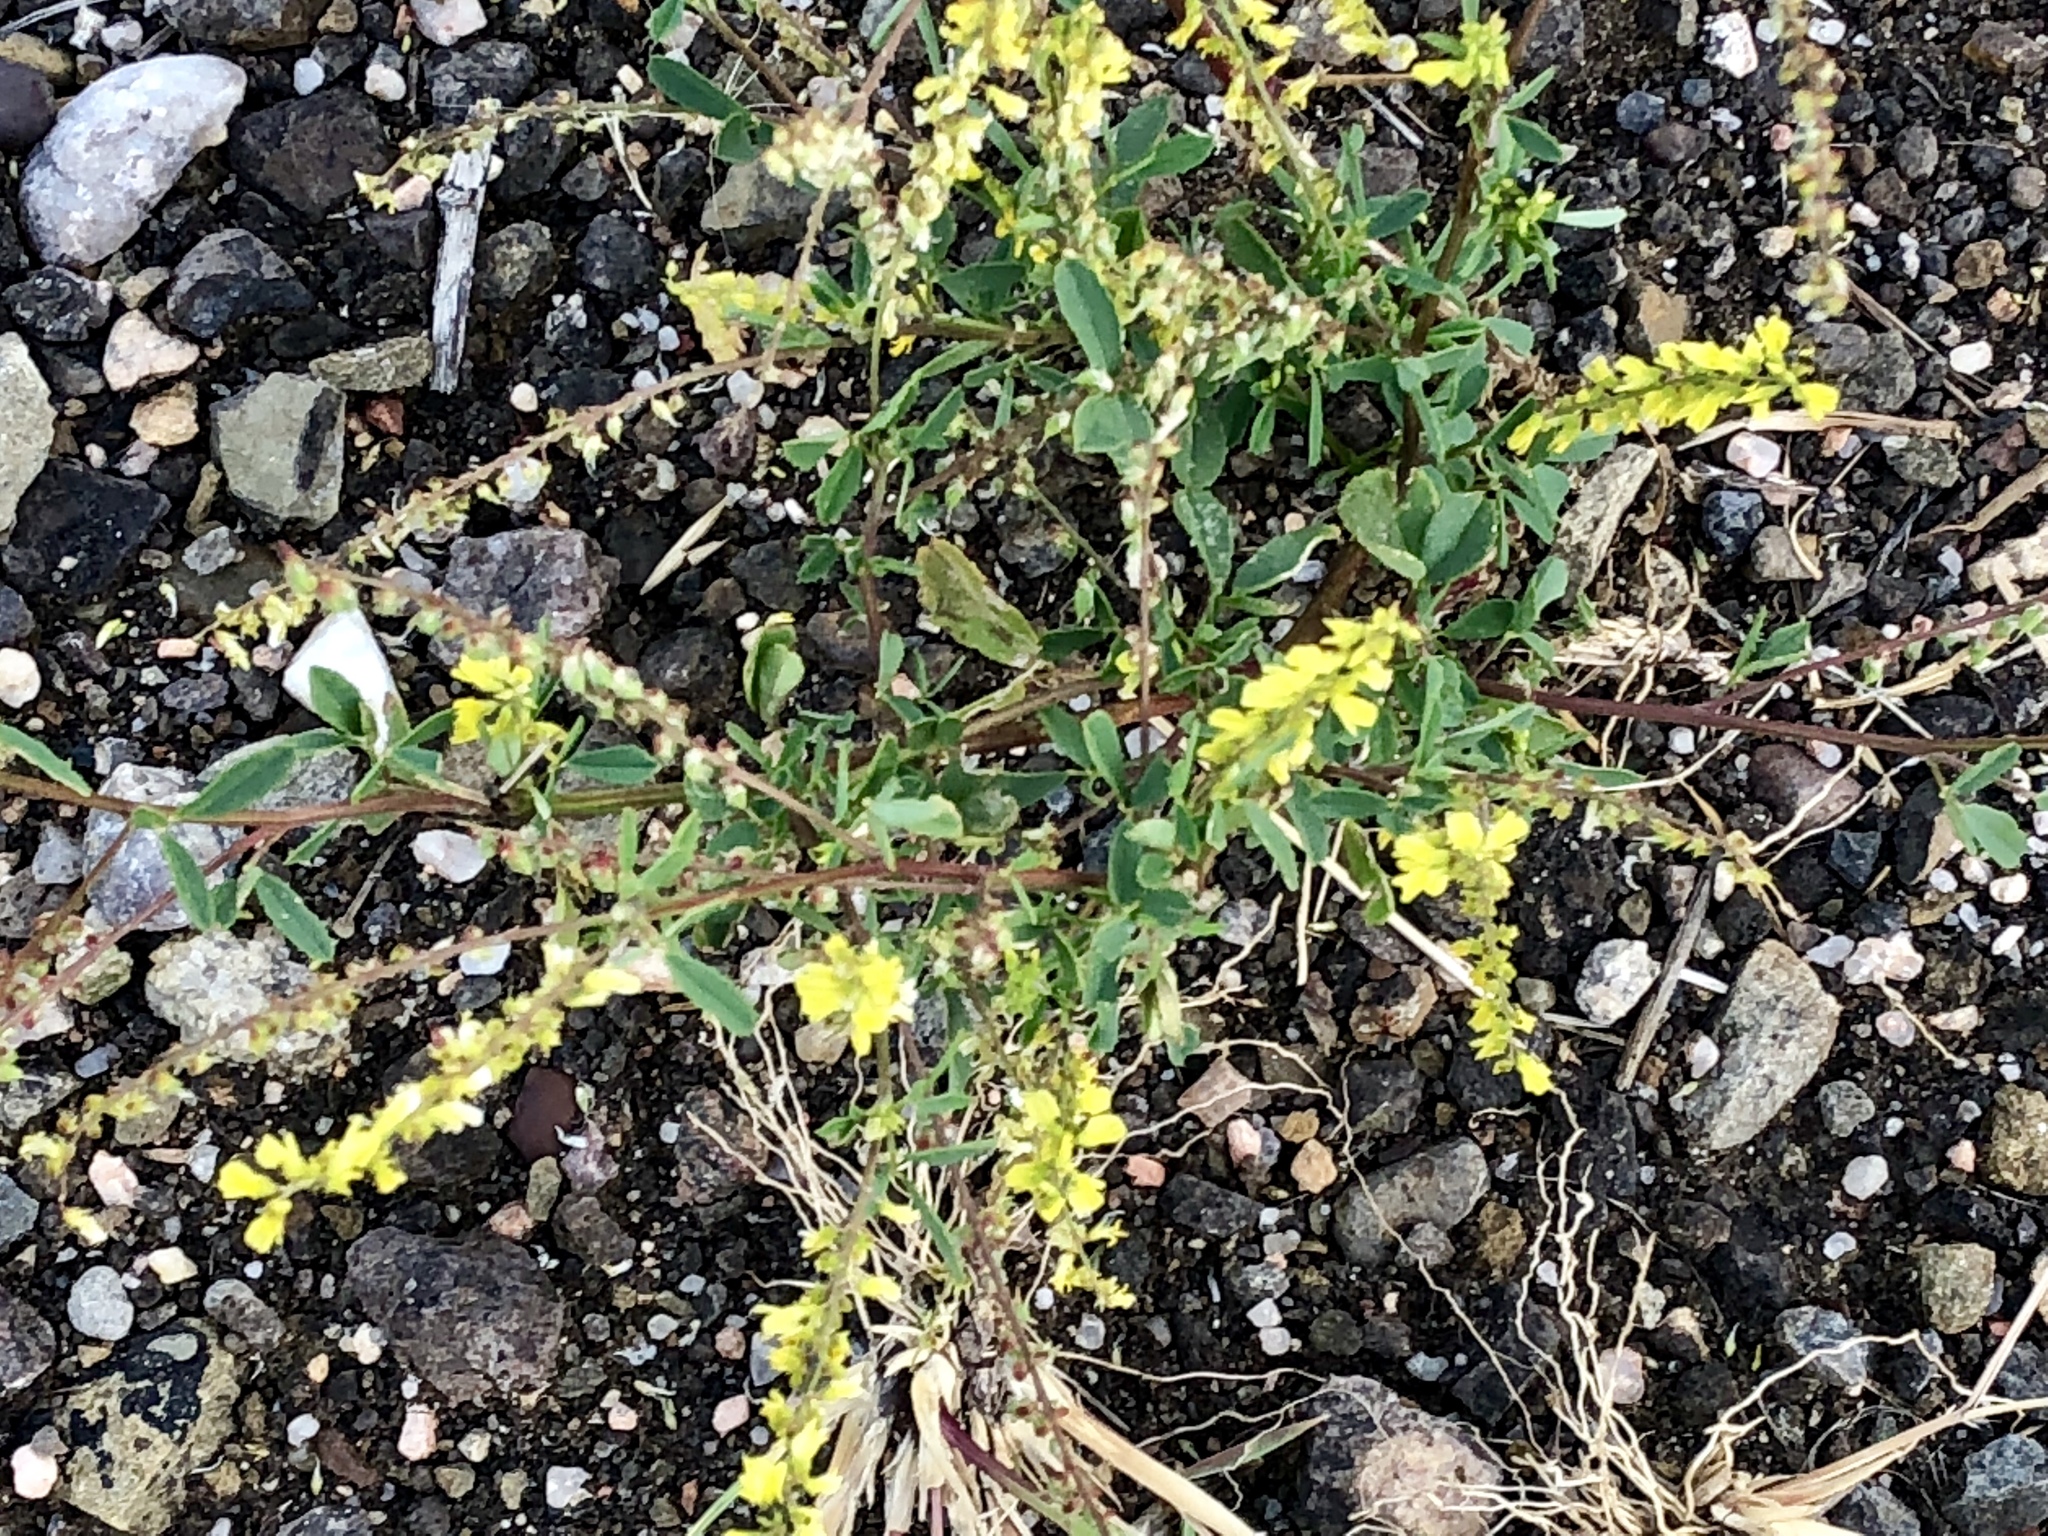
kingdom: Plantae
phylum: Tracheophyta
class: Magnoliopsida
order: Fabales
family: Fabaceae
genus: Melilotus
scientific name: Melilotus officinalis
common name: Sweetclover
